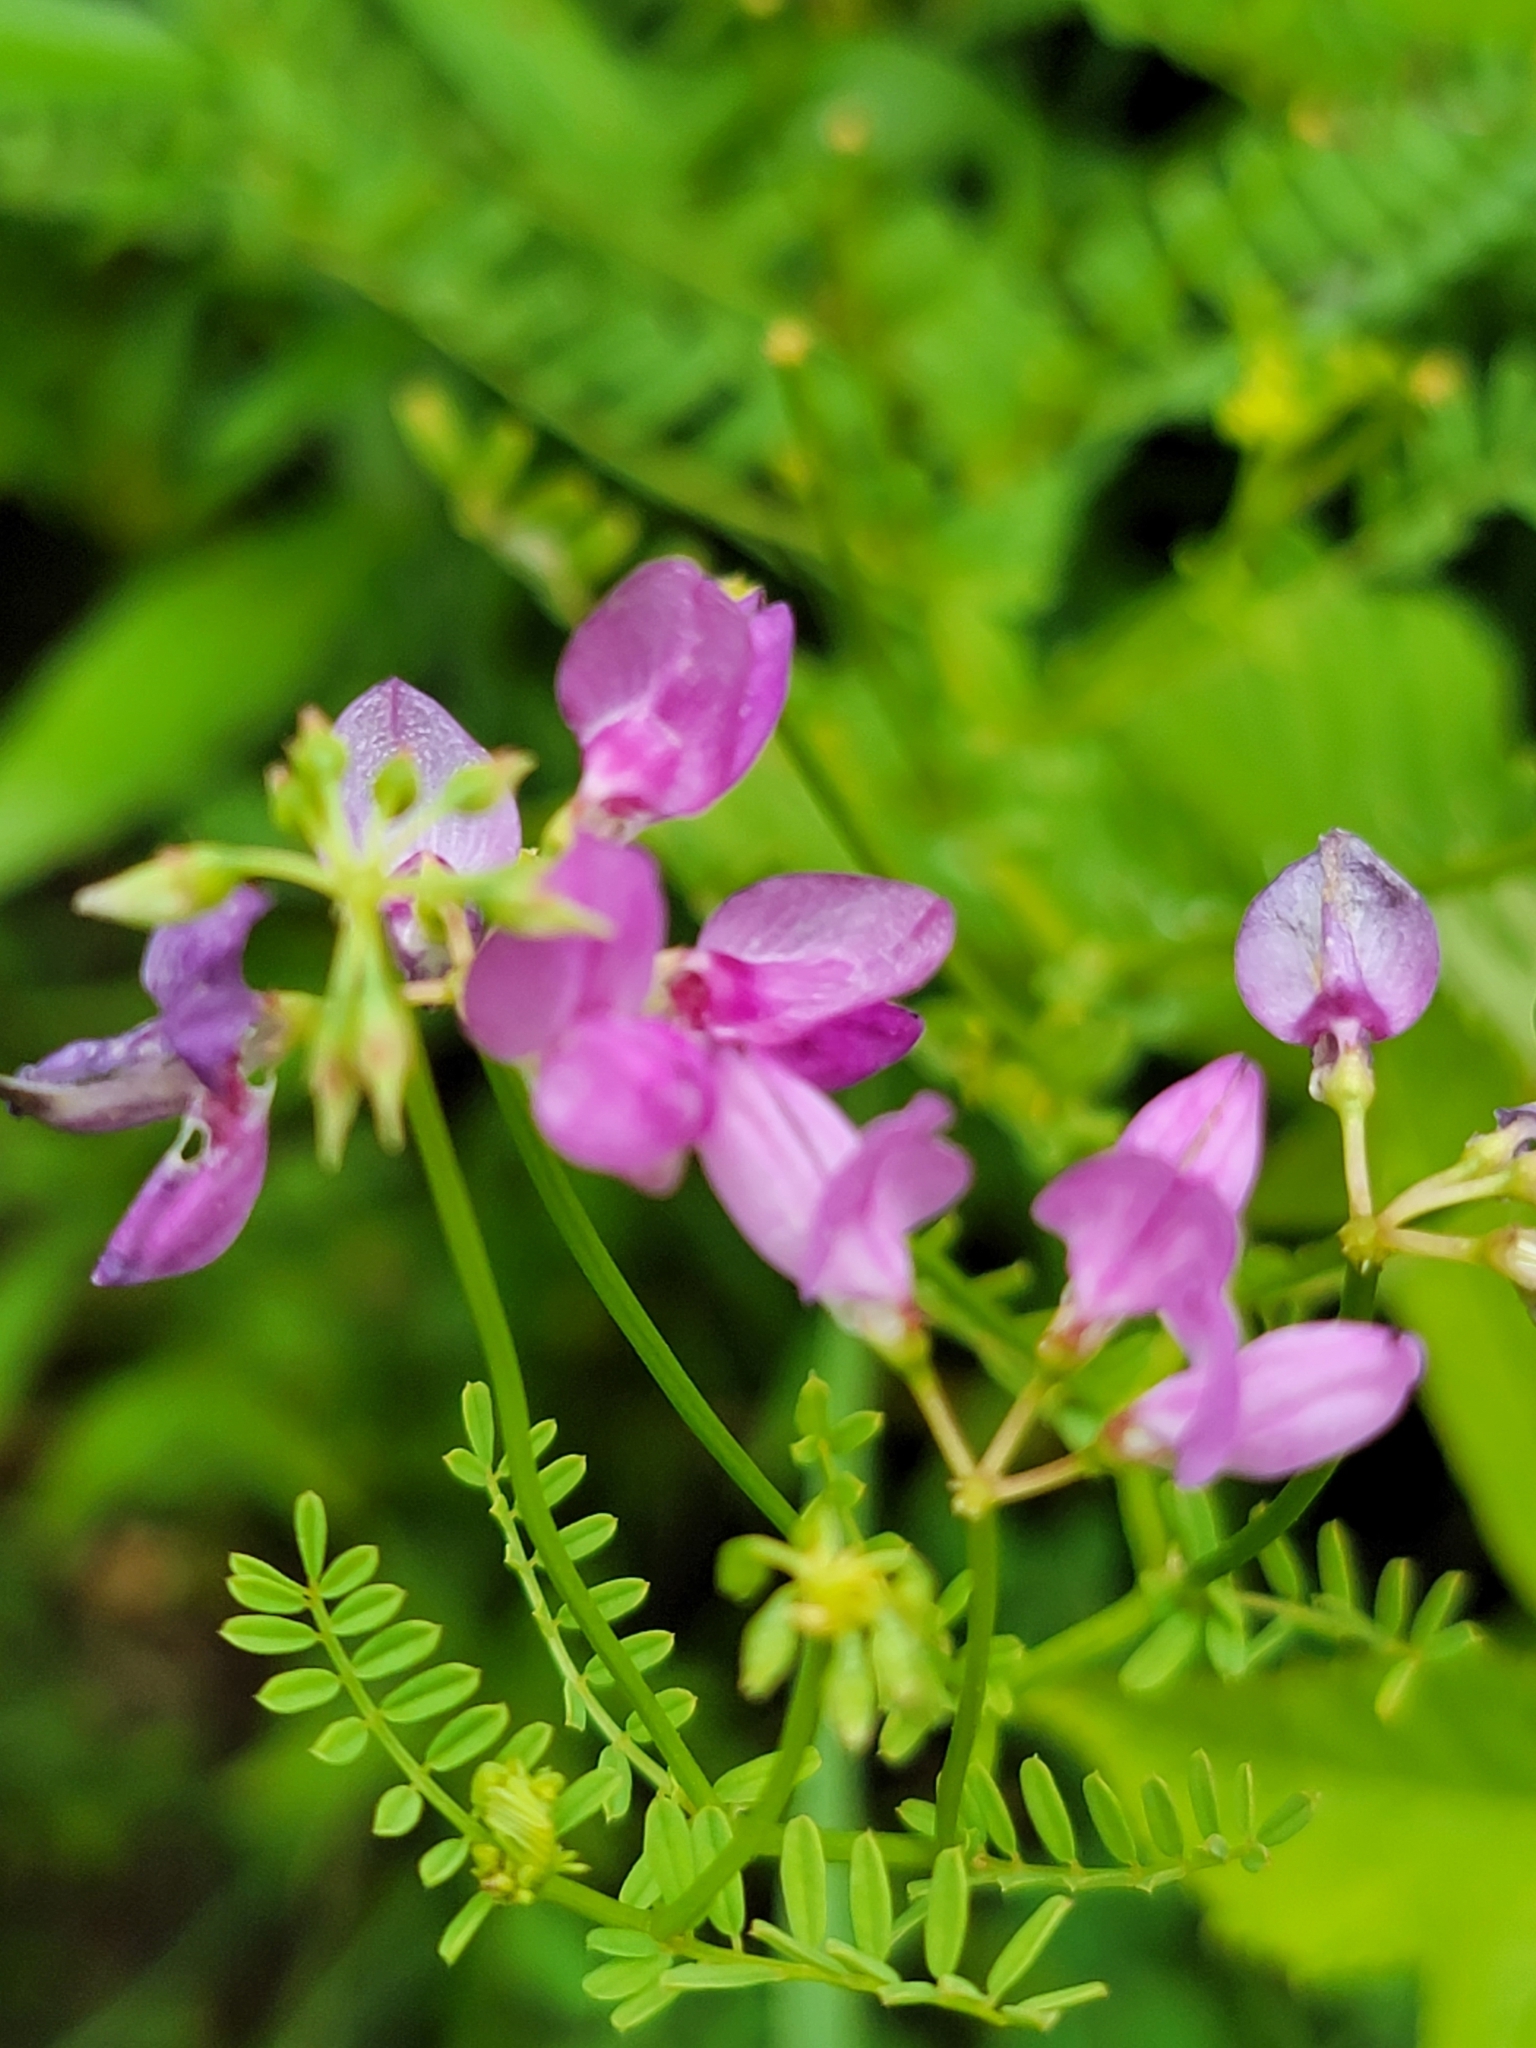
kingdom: Plantae
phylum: Tracheophyta
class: Magnoliopsida
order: Fabales
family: Fabaceae
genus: Coronilla
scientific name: Coronilla varia
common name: Crownvetch
